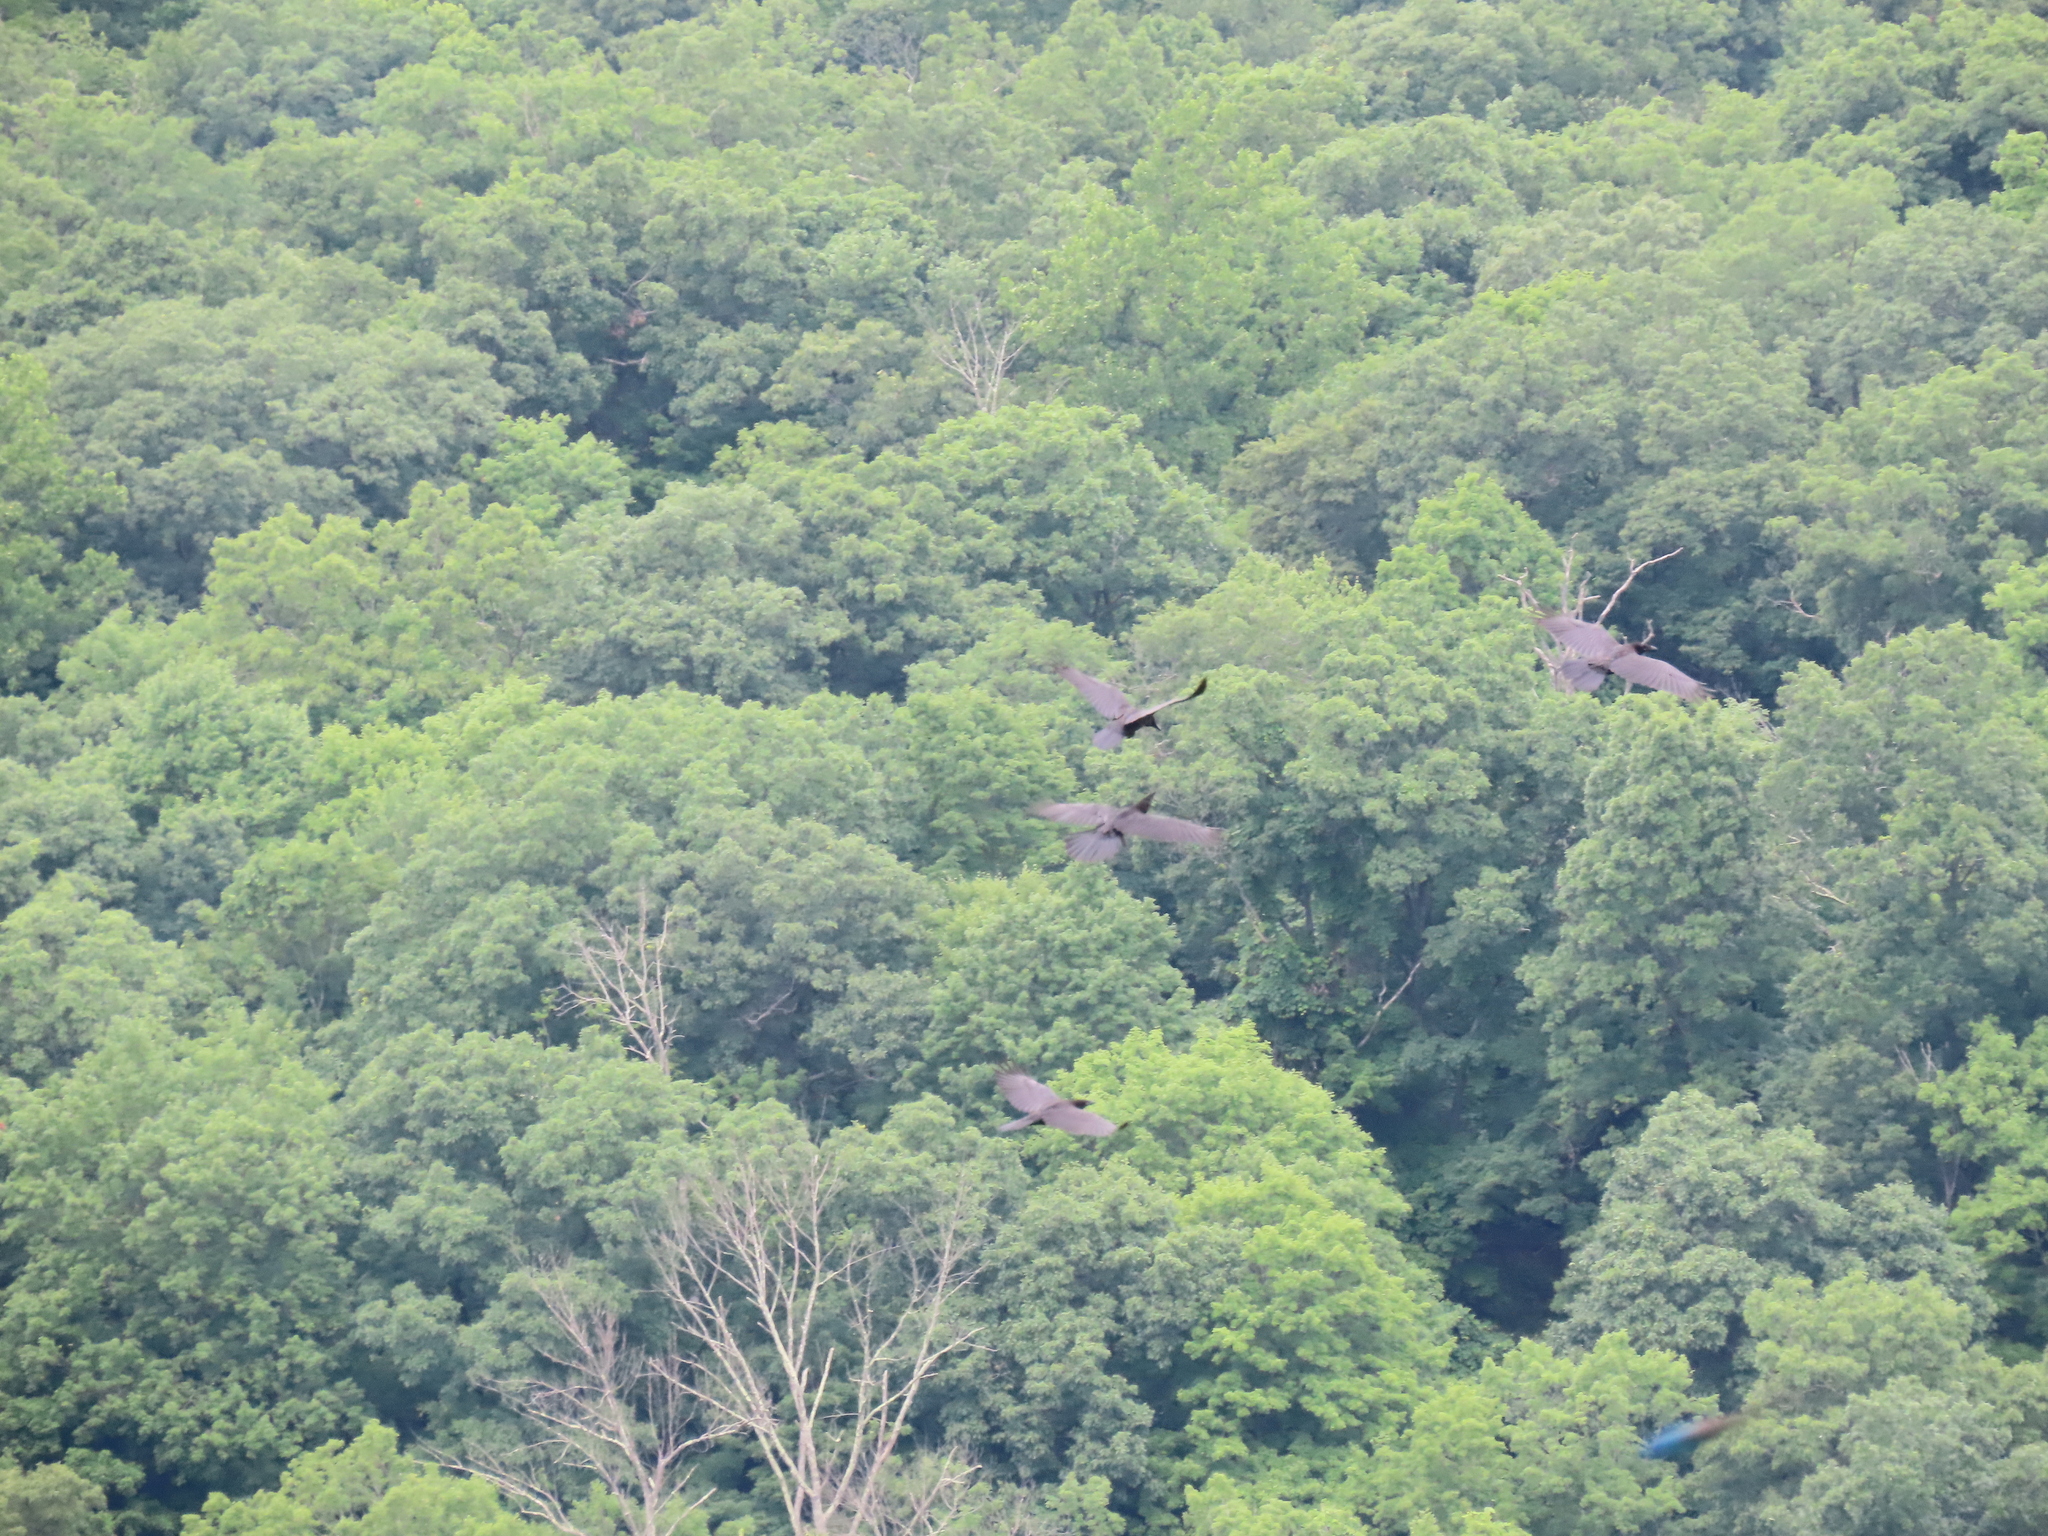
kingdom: Animalia
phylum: Chordata
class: Aves
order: Passeriformes
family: Corvidae
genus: Corvus
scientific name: Corvus corax
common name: Common raven
